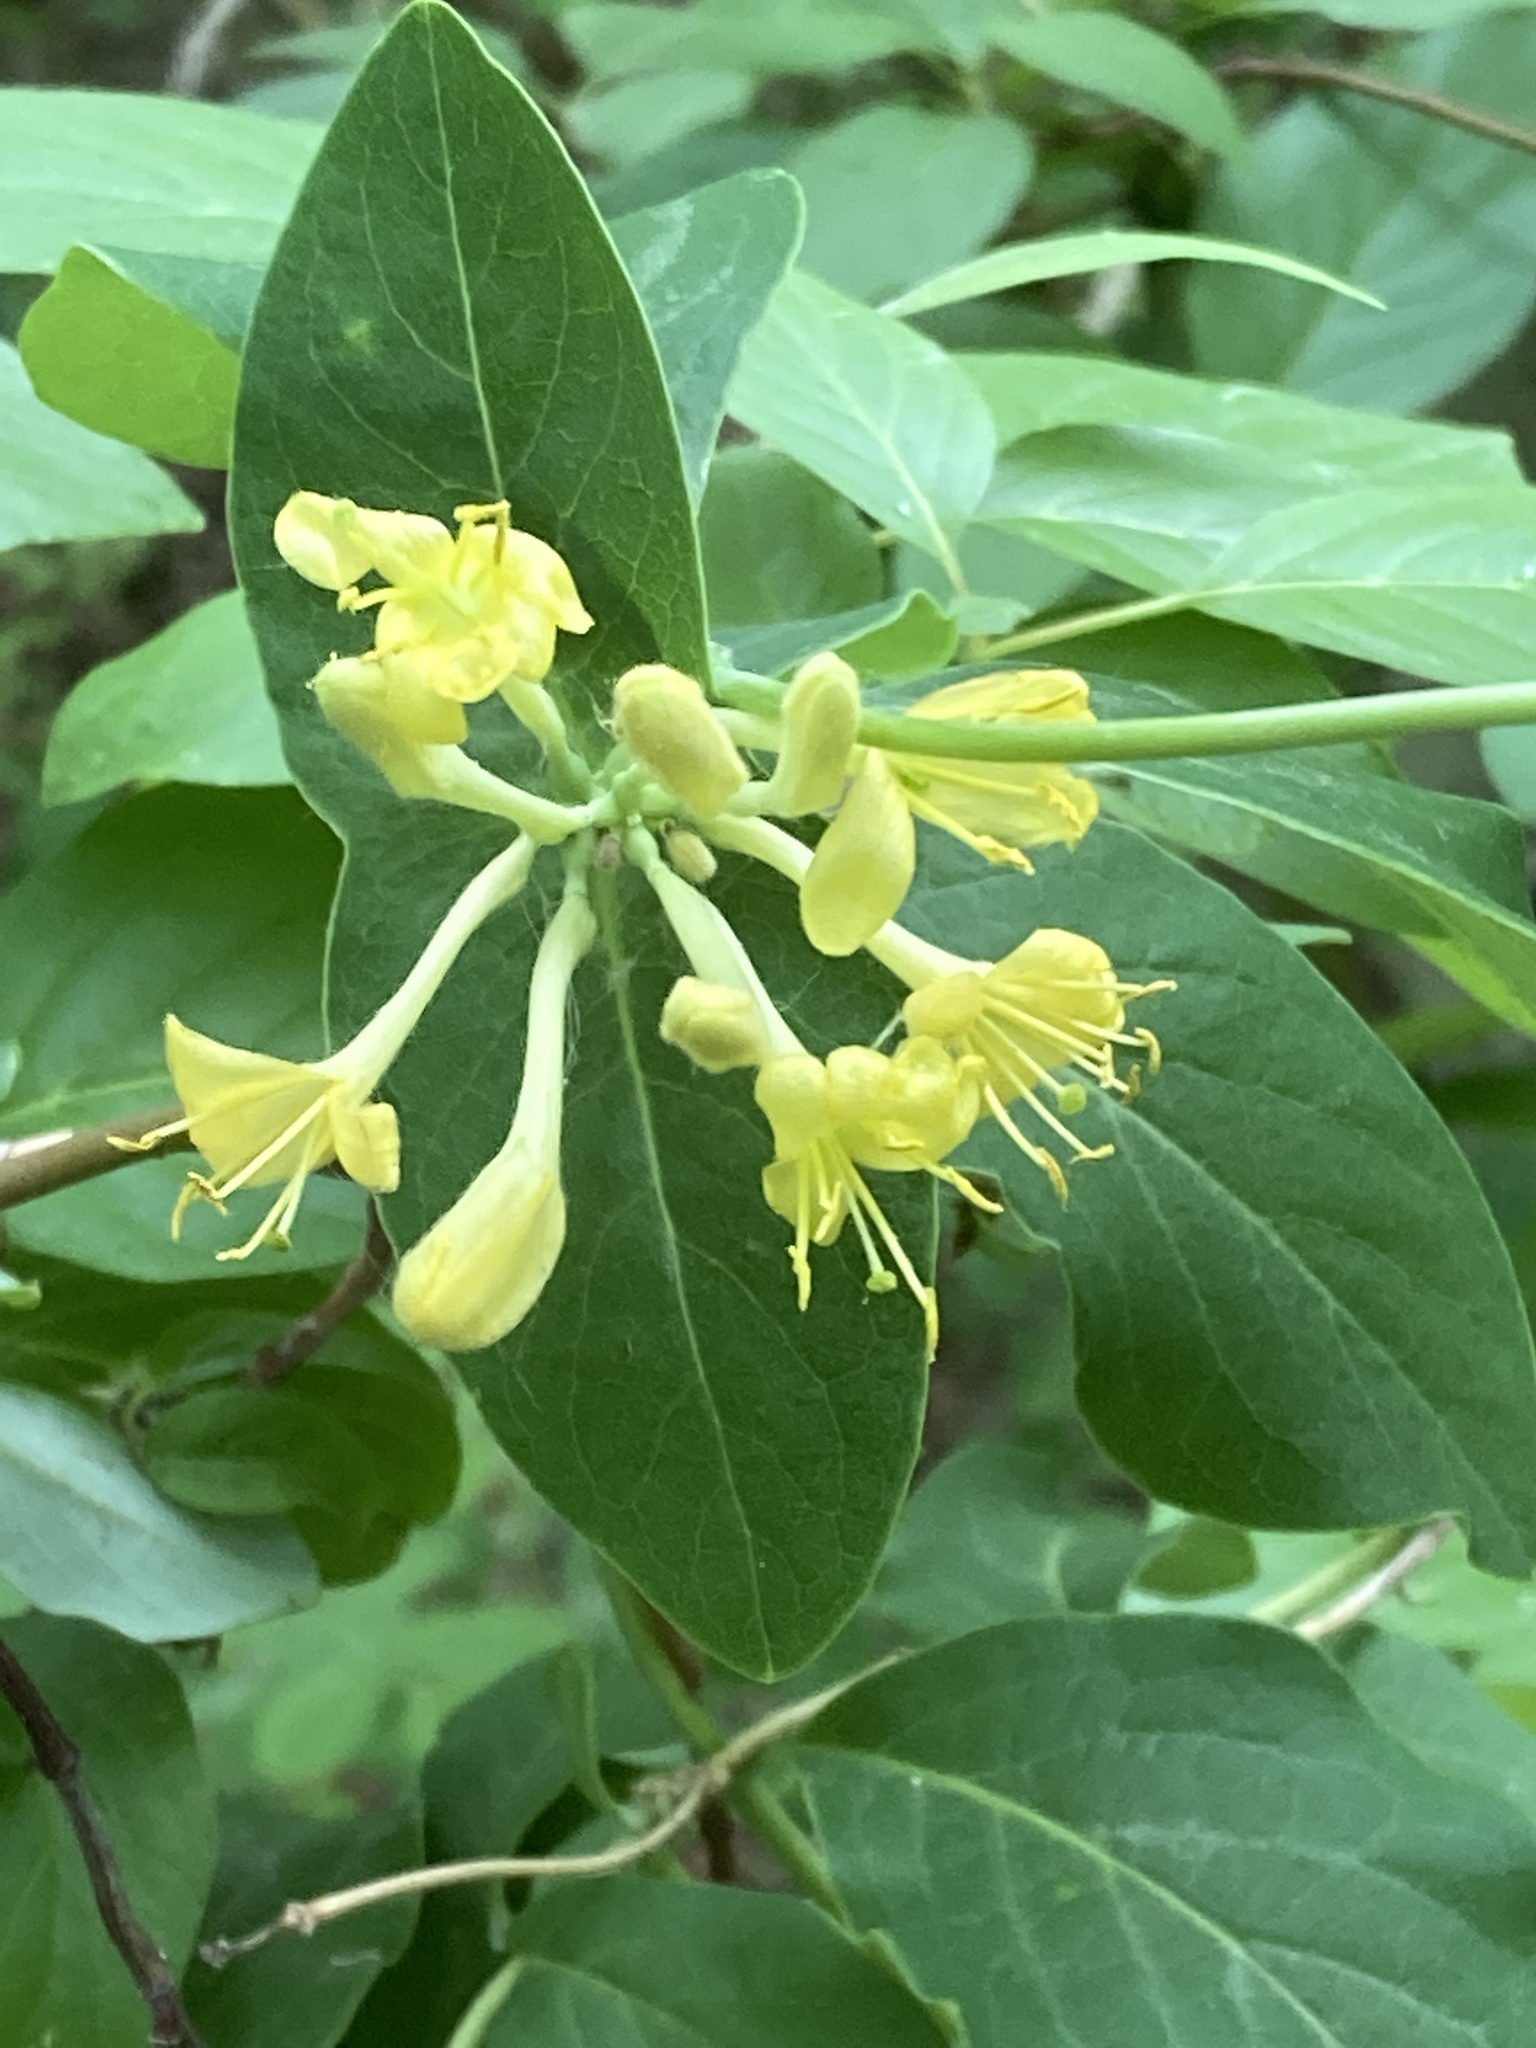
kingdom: Plantae
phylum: Tracheophyta
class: Magnoliopsida
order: Dipsacales
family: Caprifoliaceae
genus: Lonicera
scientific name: Lonicera dioica
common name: Limber honeysuckle
